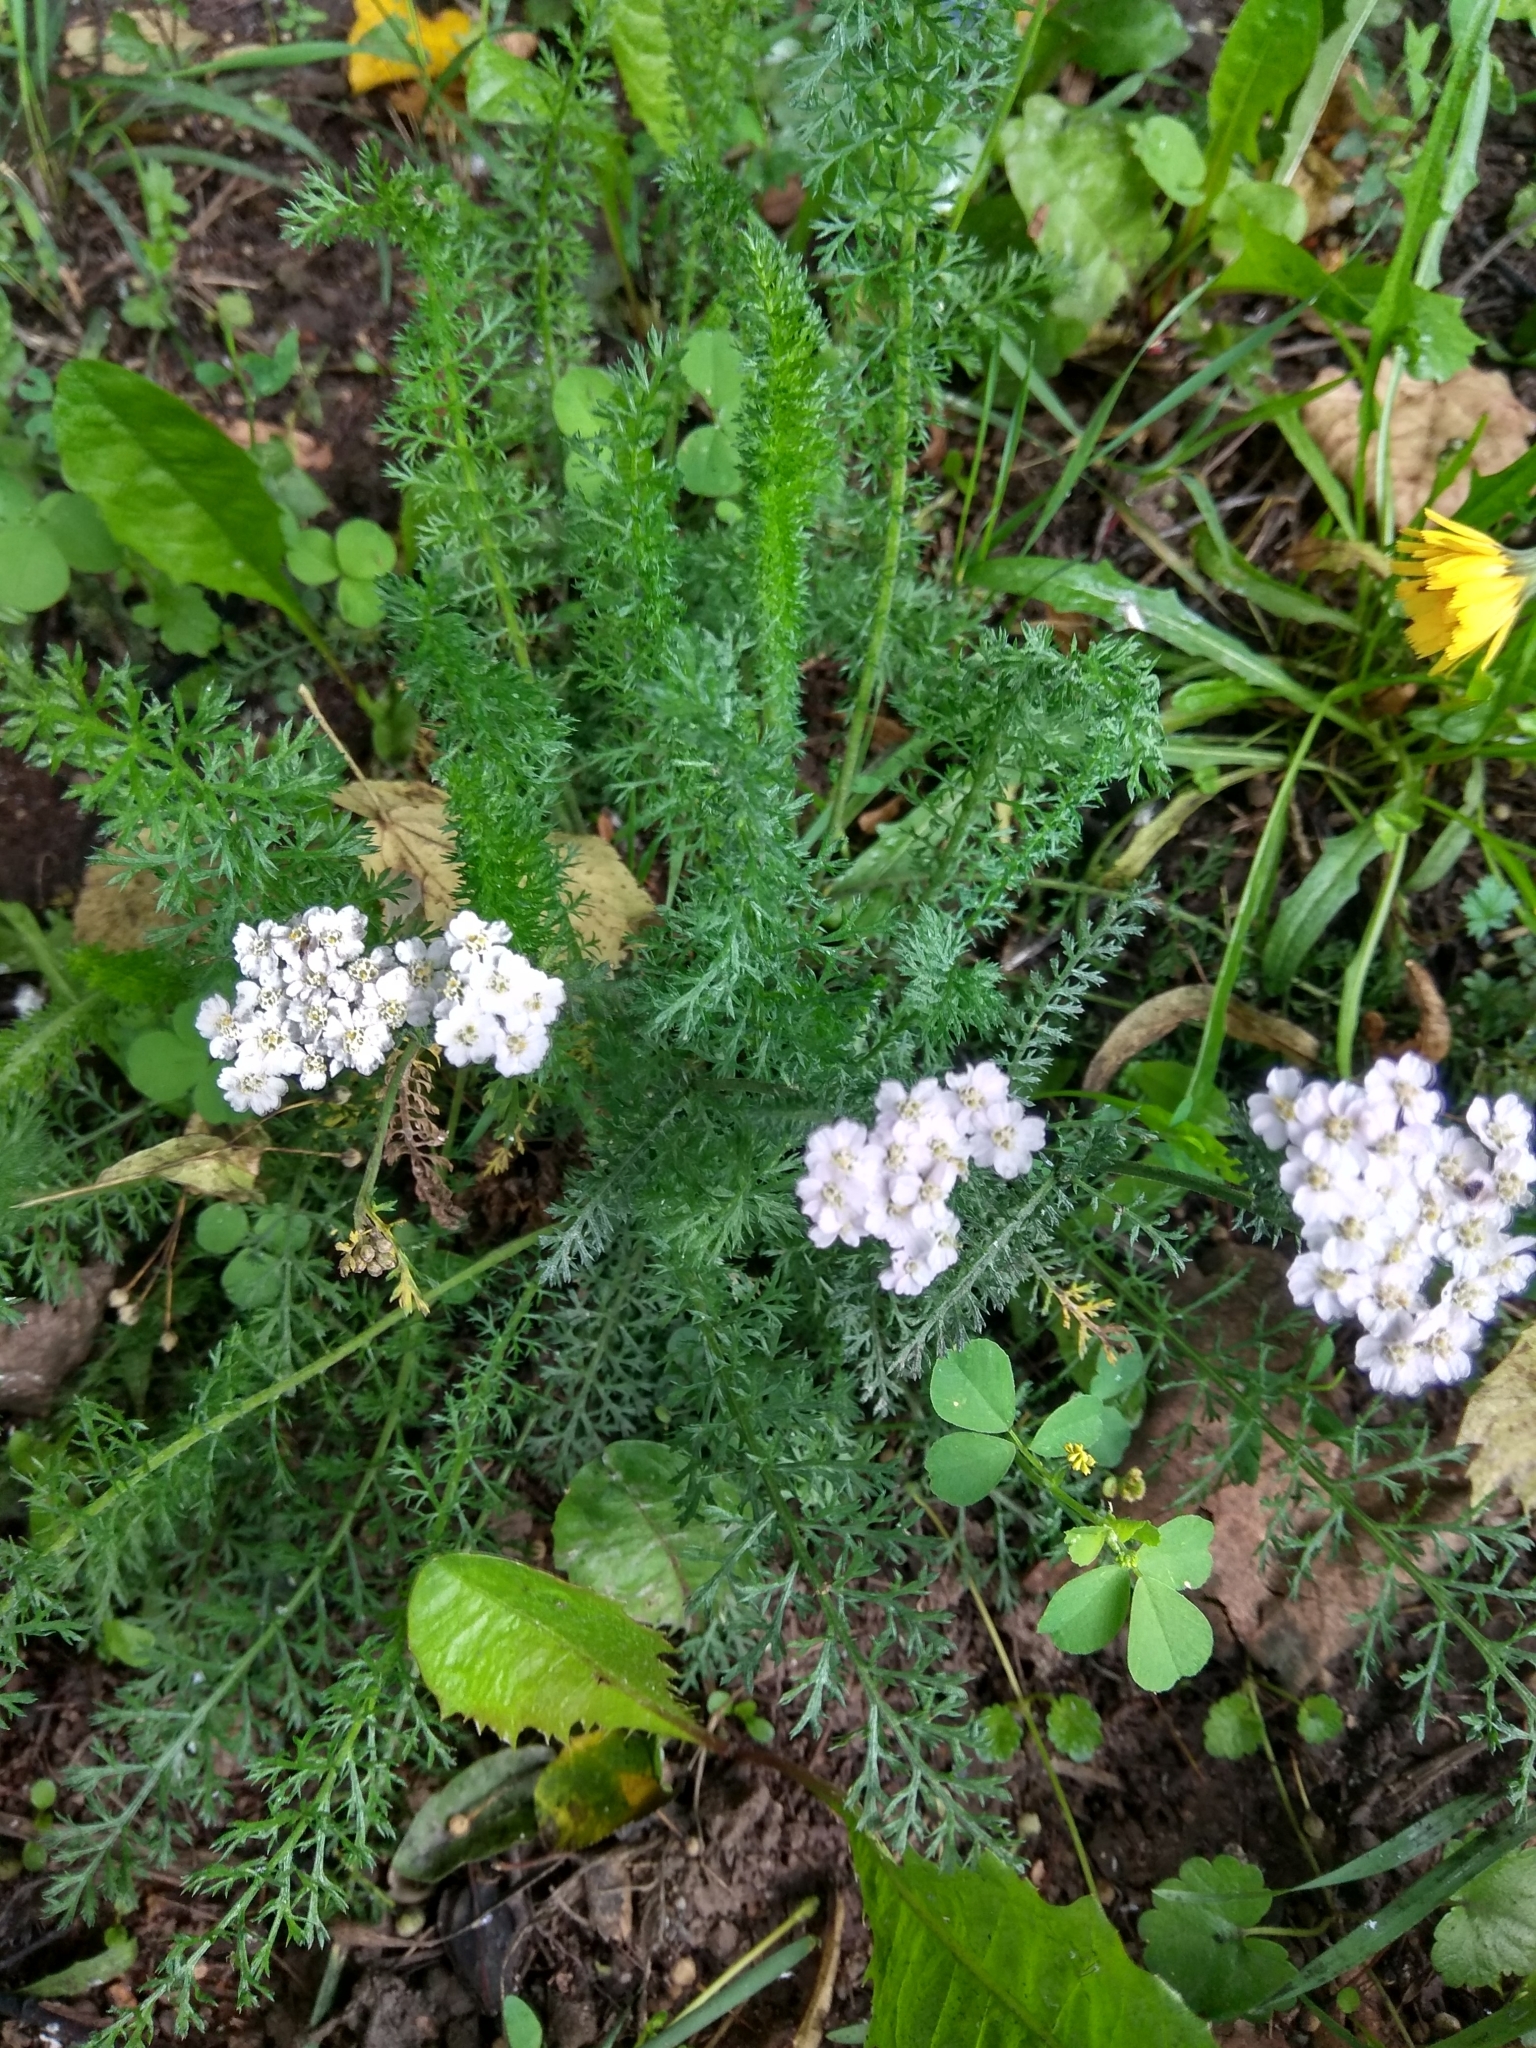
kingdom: Plantae
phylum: Tracheophyta
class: Magnoliopsida
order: Asterales
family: Asteraceae
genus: Achillea
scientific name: Achillea millefolium
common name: Yarrow
